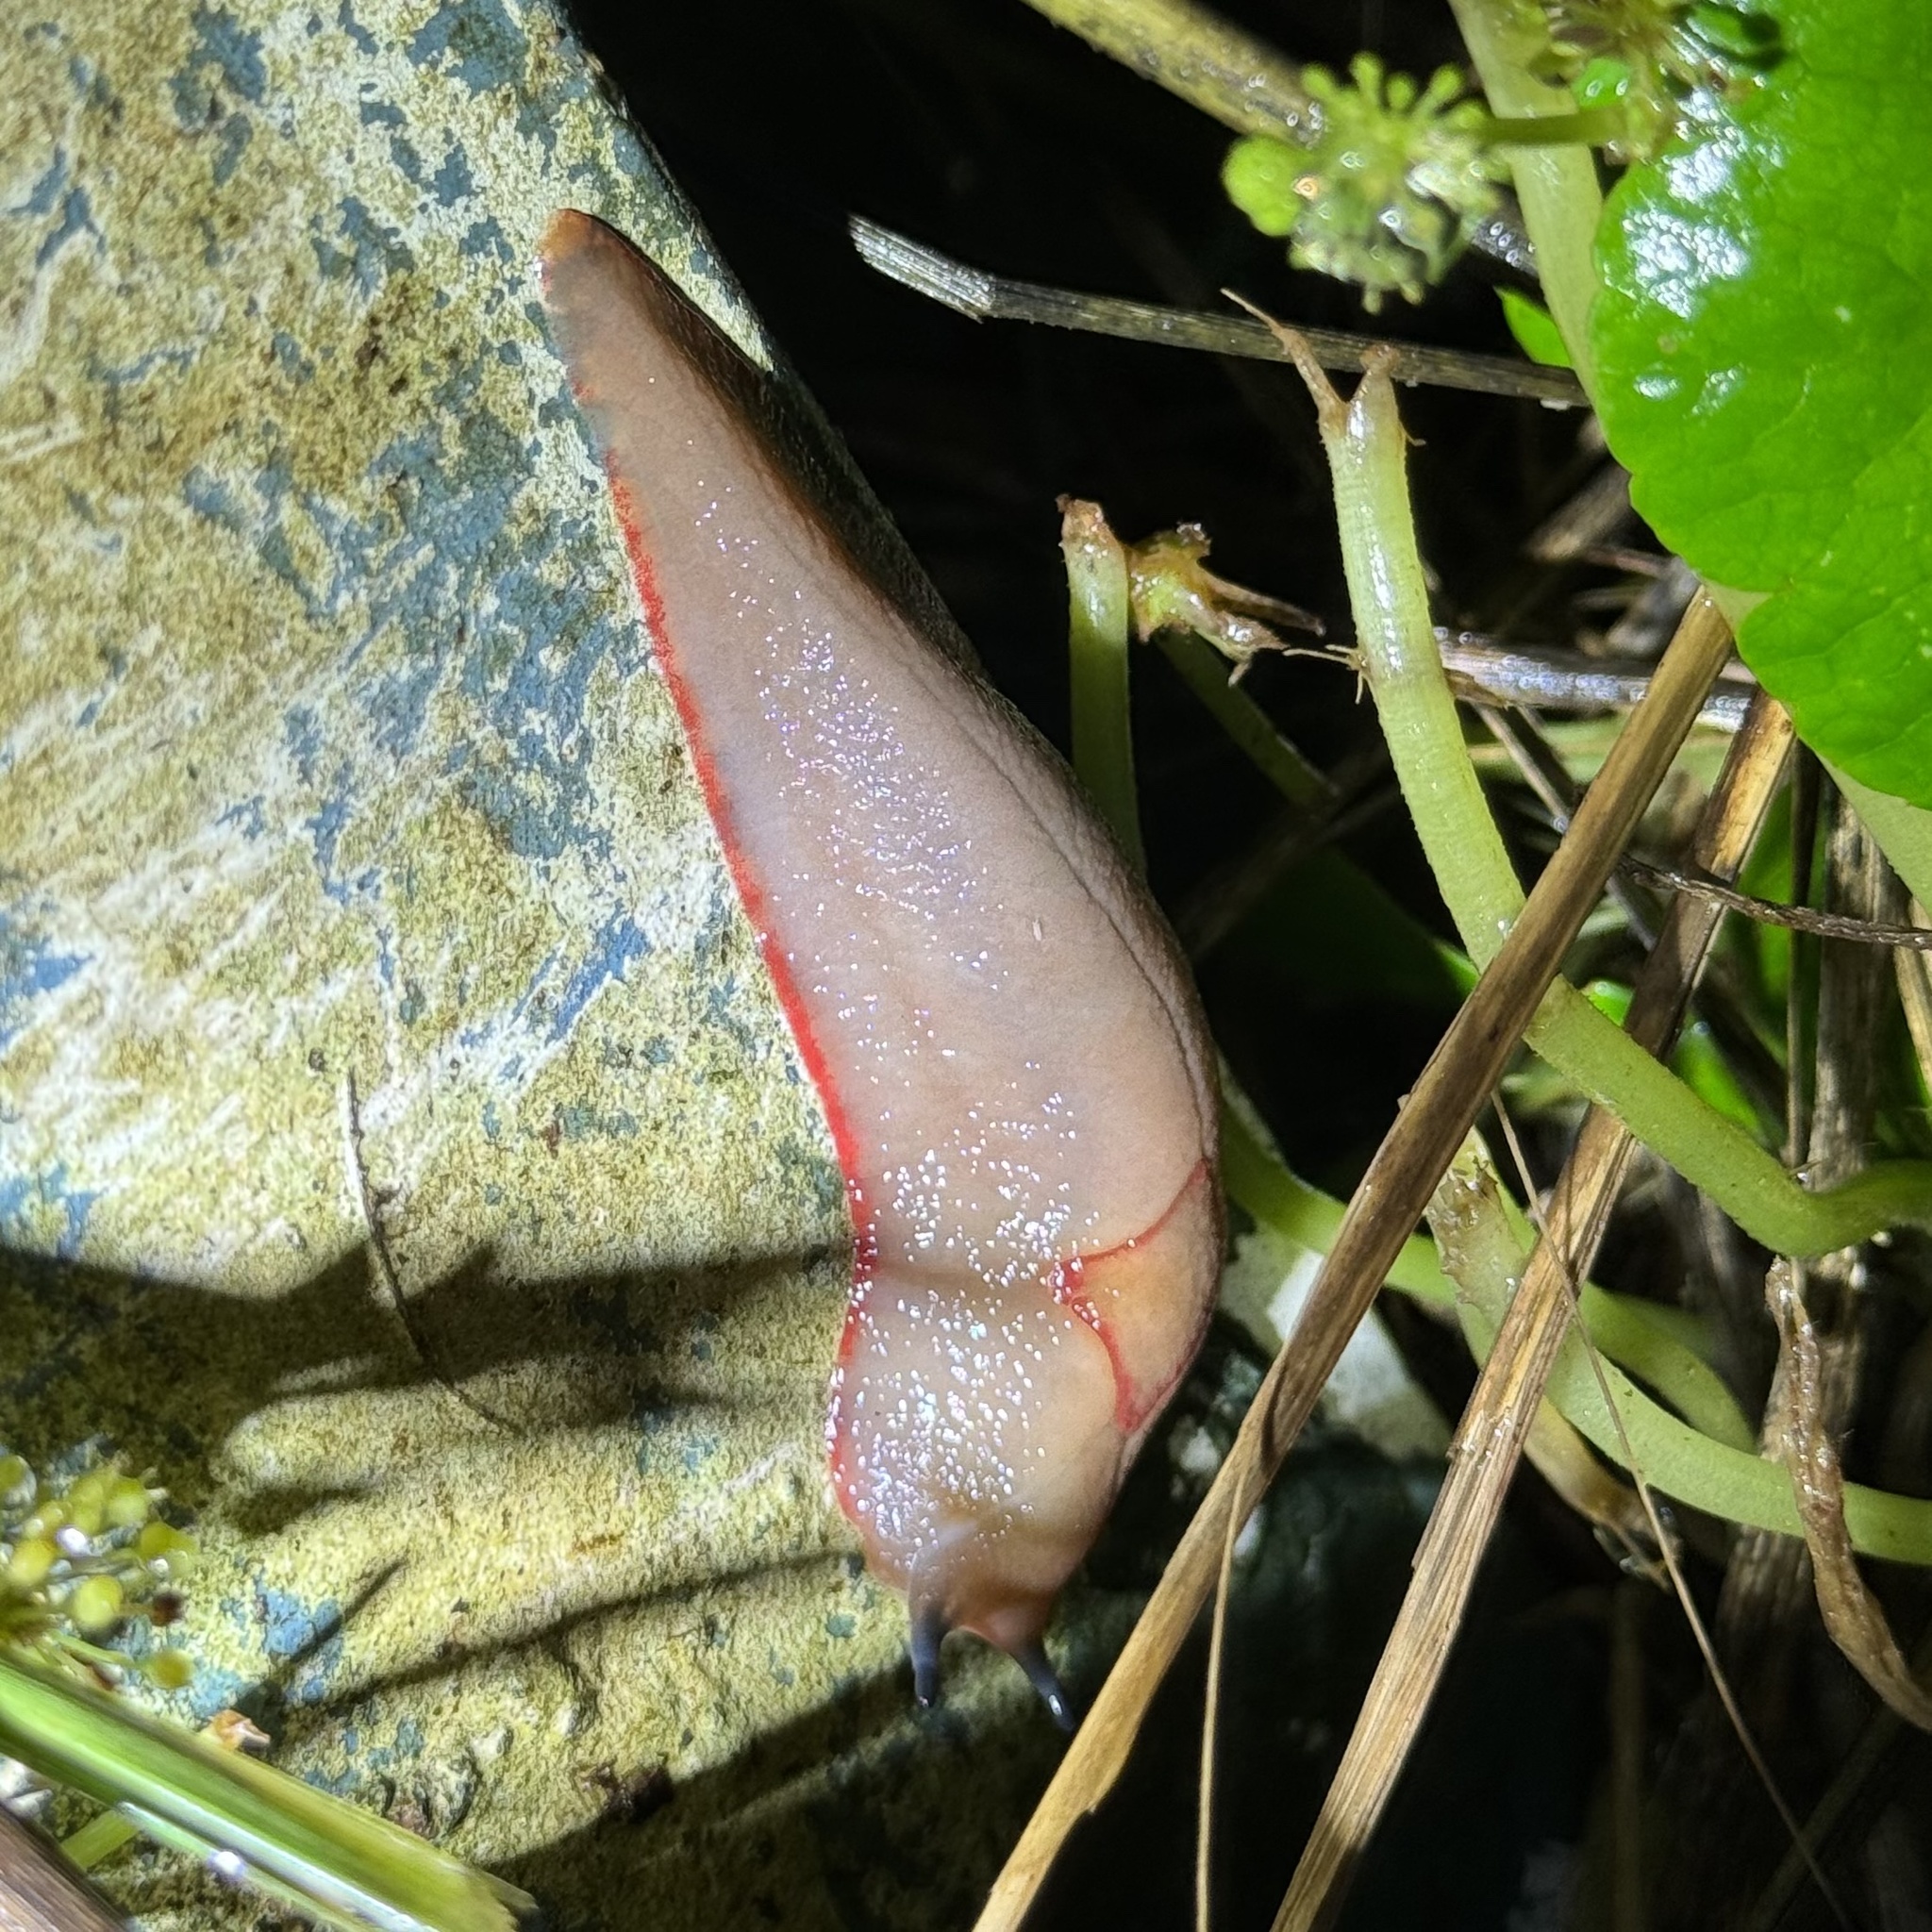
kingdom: Animalia
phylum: Mollusca
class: Gastropoda
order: Stylommatophora
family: Athoracophoridae
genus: Triboniophorus
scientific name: Triboniophorus graeffei
